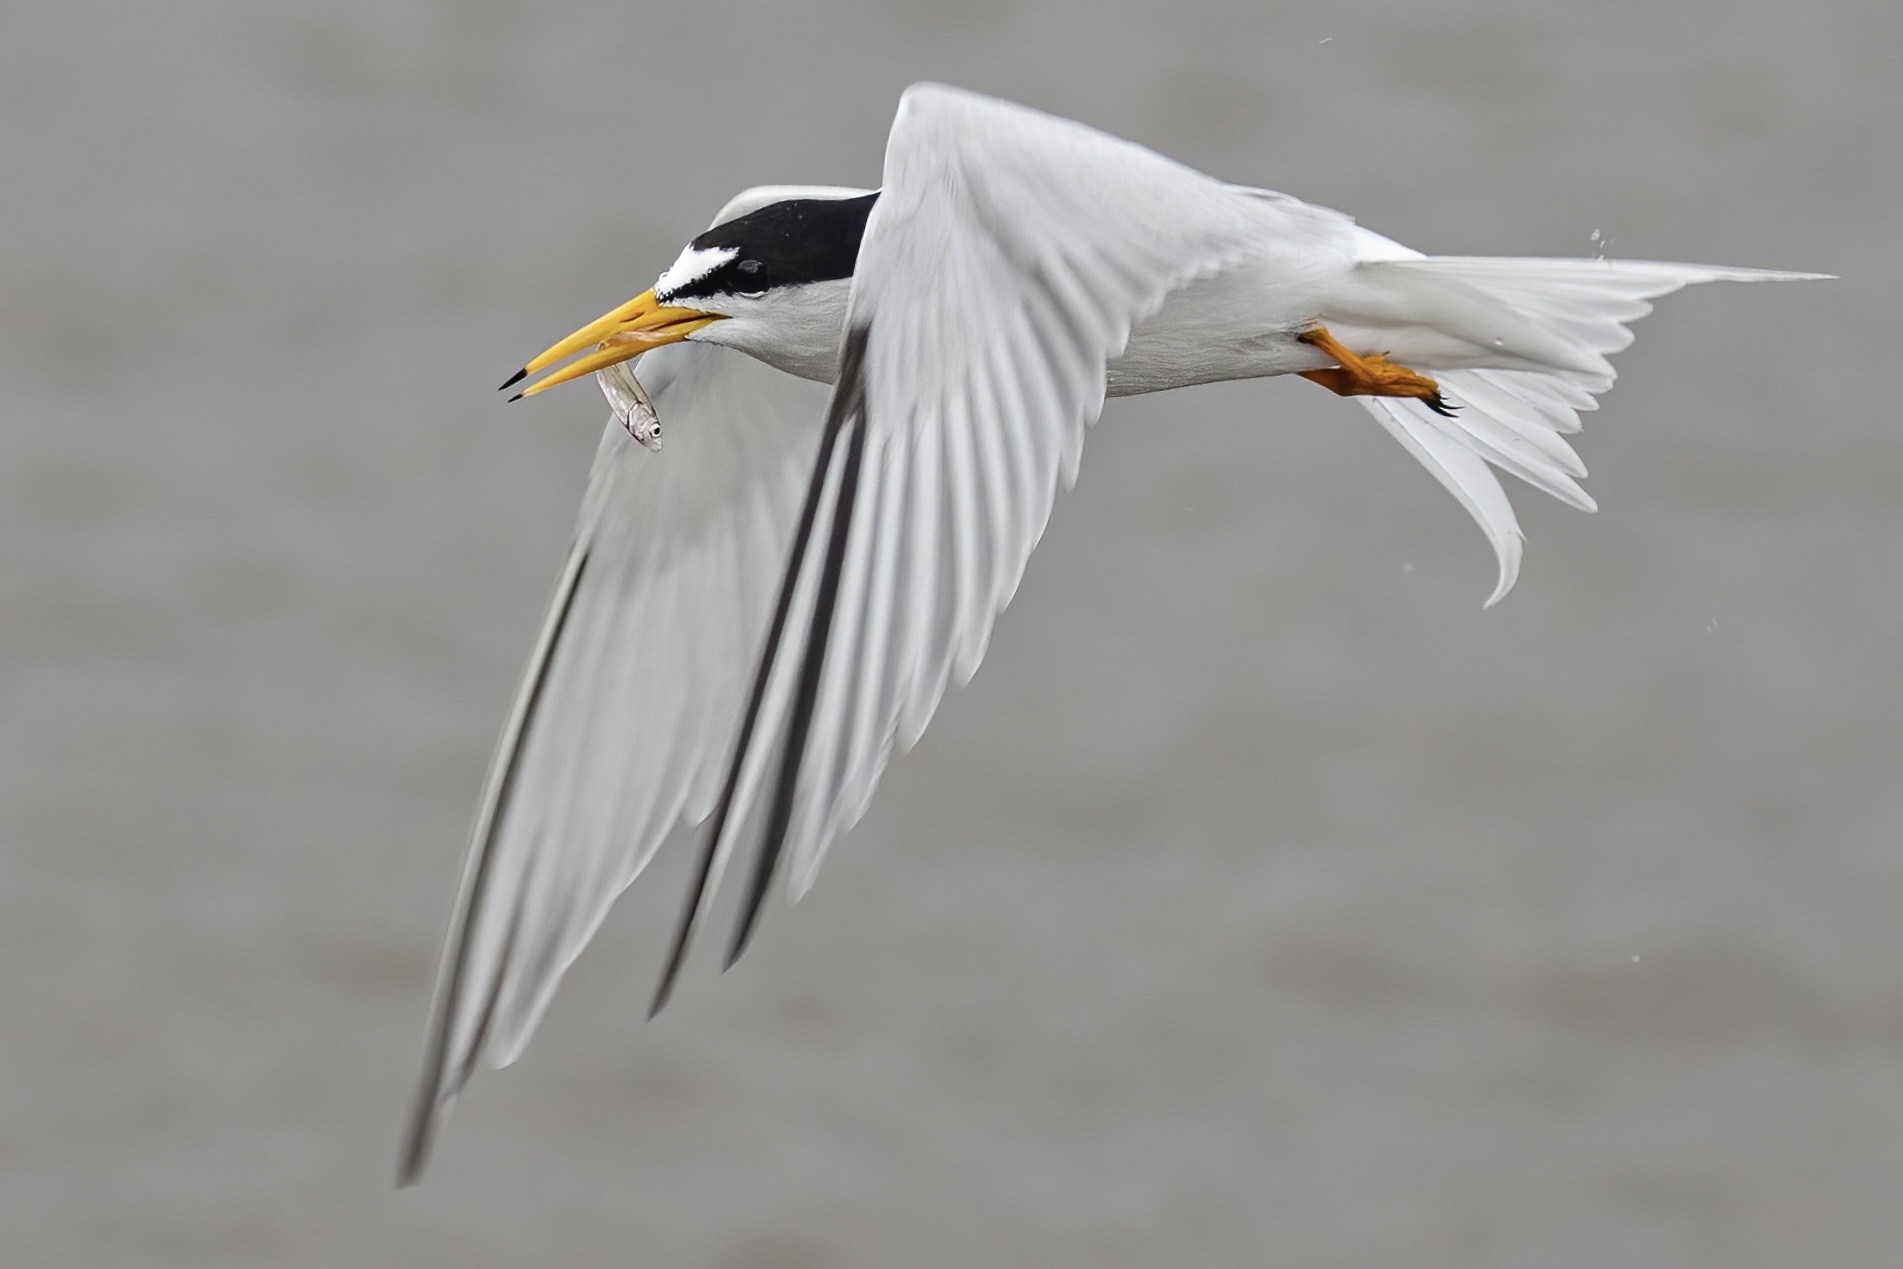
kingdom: Animalia
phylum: Chordata
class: Aves
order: Charadriiformes
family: Laridae
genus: Sternula
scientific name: Sternula antillarum
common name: Least tern
